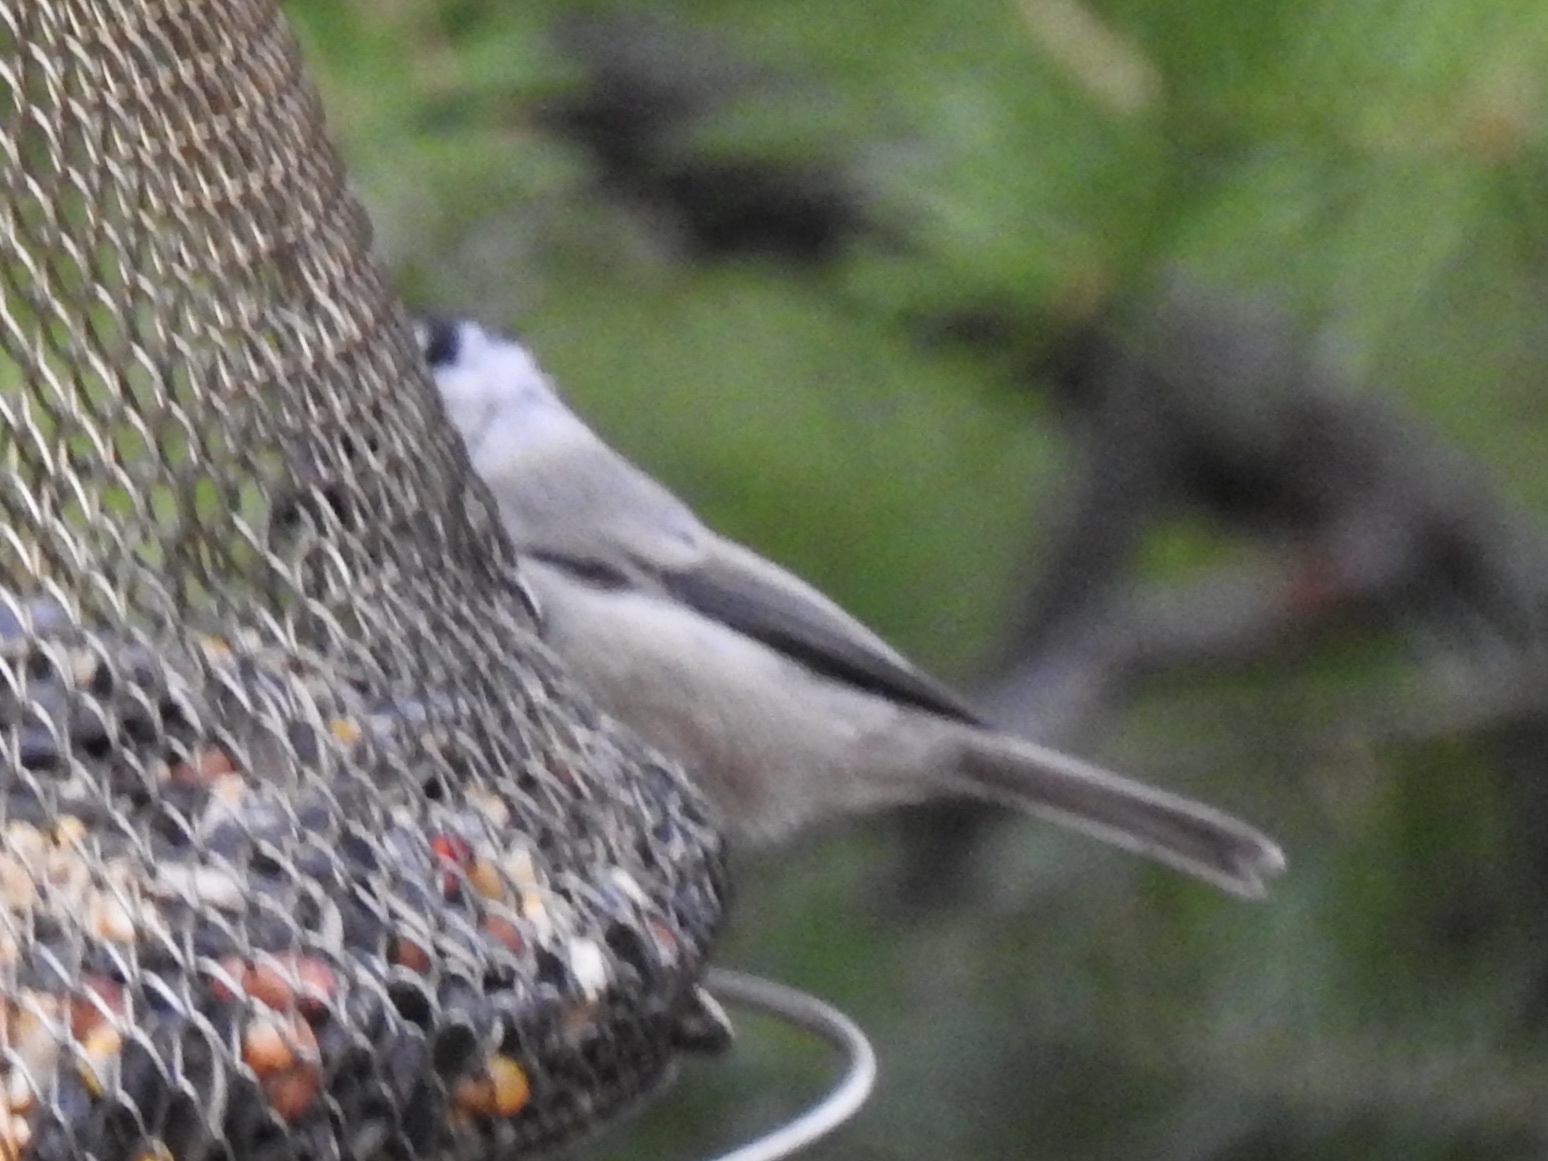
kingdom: Animalia
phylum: Chordata
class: Aves
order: Passeriformes
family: Paridae
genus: Poecile
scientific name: Poecile gambeli
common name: Mountain chickadee
